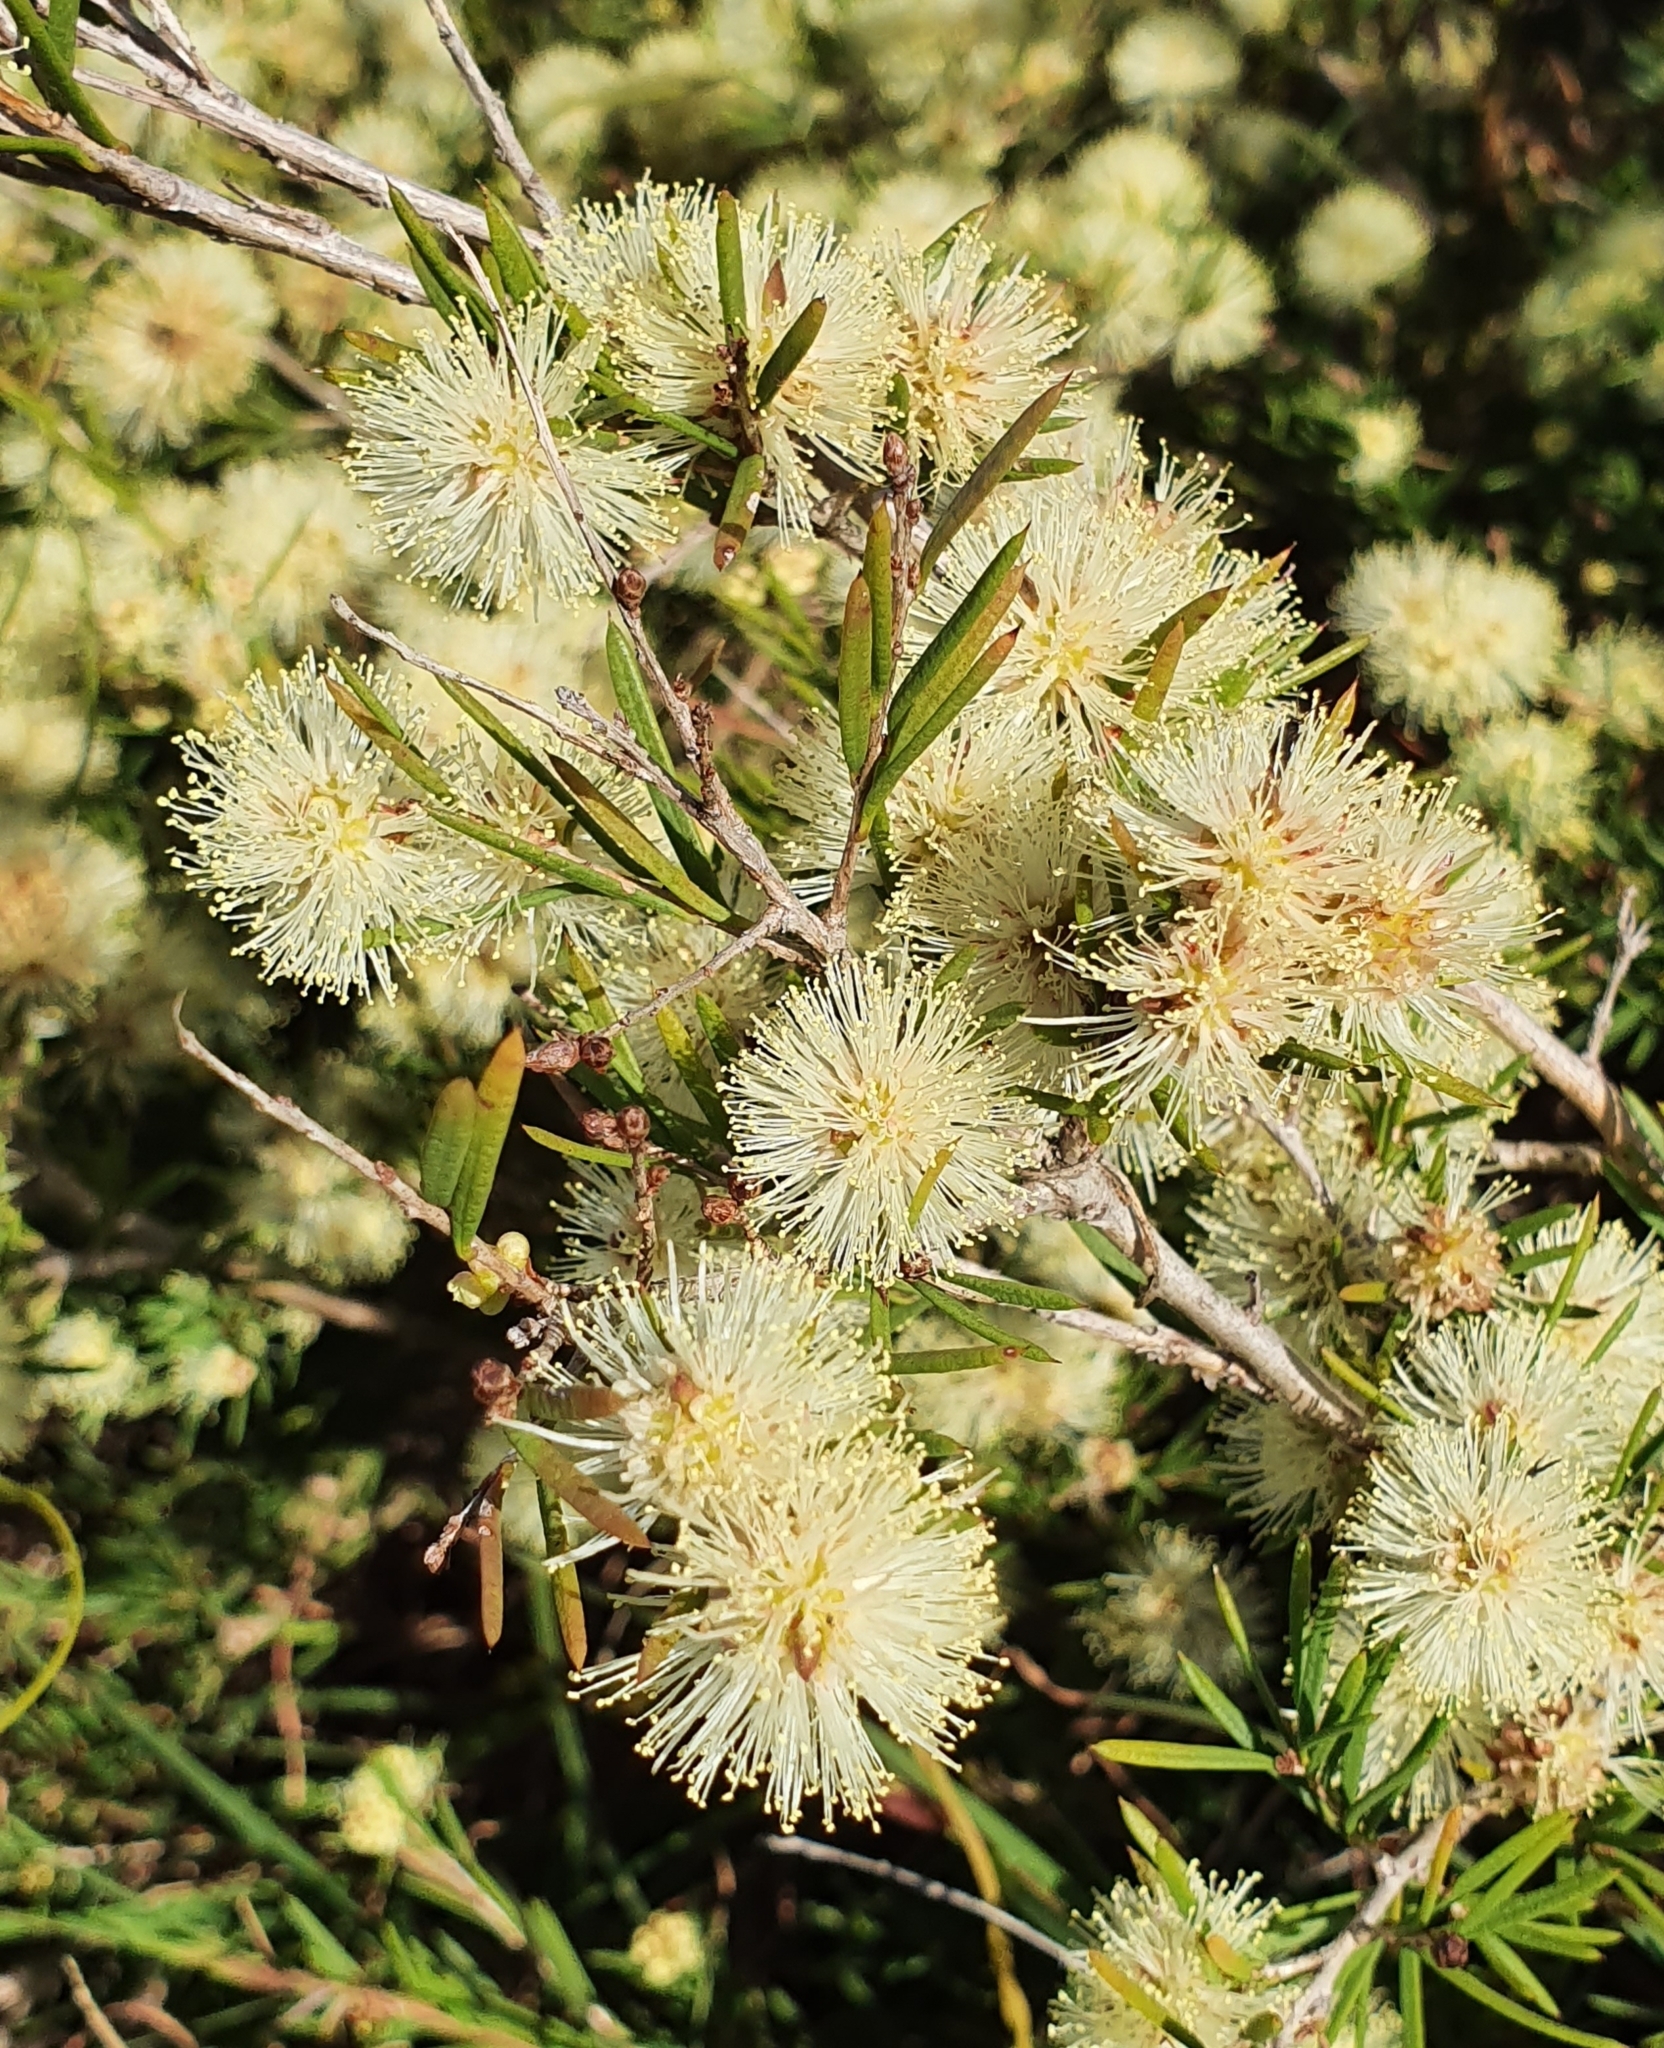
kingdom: Plantae
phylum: Tracheophyta
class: Magnoliopsida
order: Myrtales
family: Myrtaceae
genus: Melaleuca
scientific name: Melaleuca nodosa
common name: Prickly-leaf paperbark
